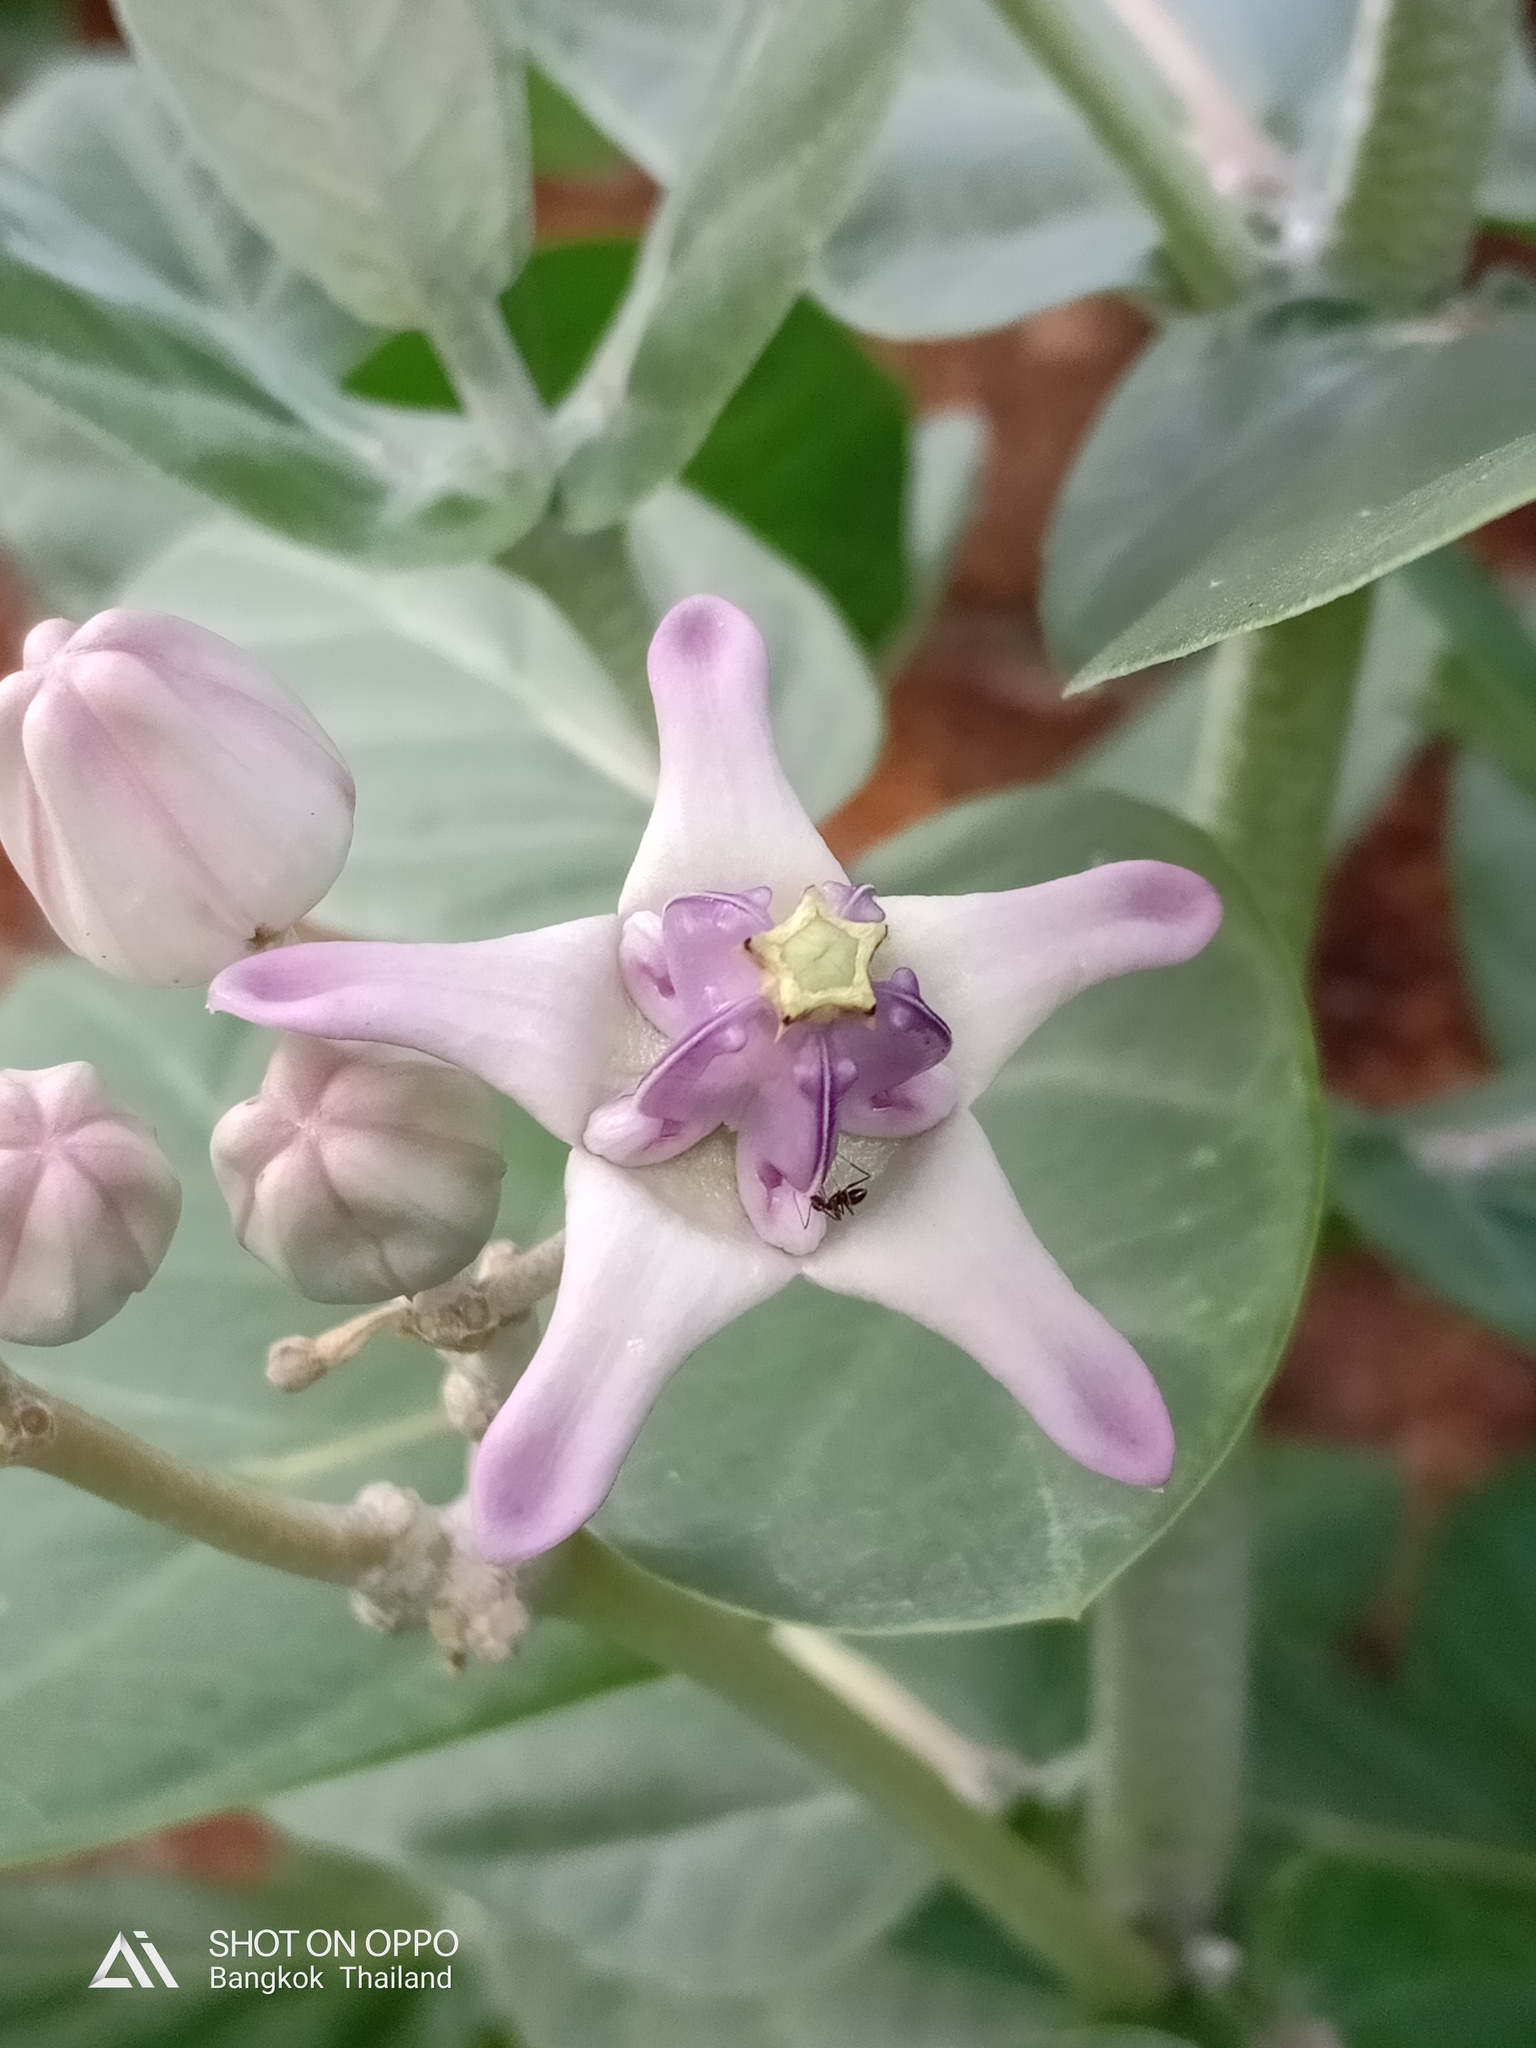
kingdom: Plantae
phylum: Tracheophyta
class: Magnoliopsida
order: Gentianales
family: Apocynaceae
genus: Calotropis
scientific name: Calotropis gigantea
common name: Crown flower
